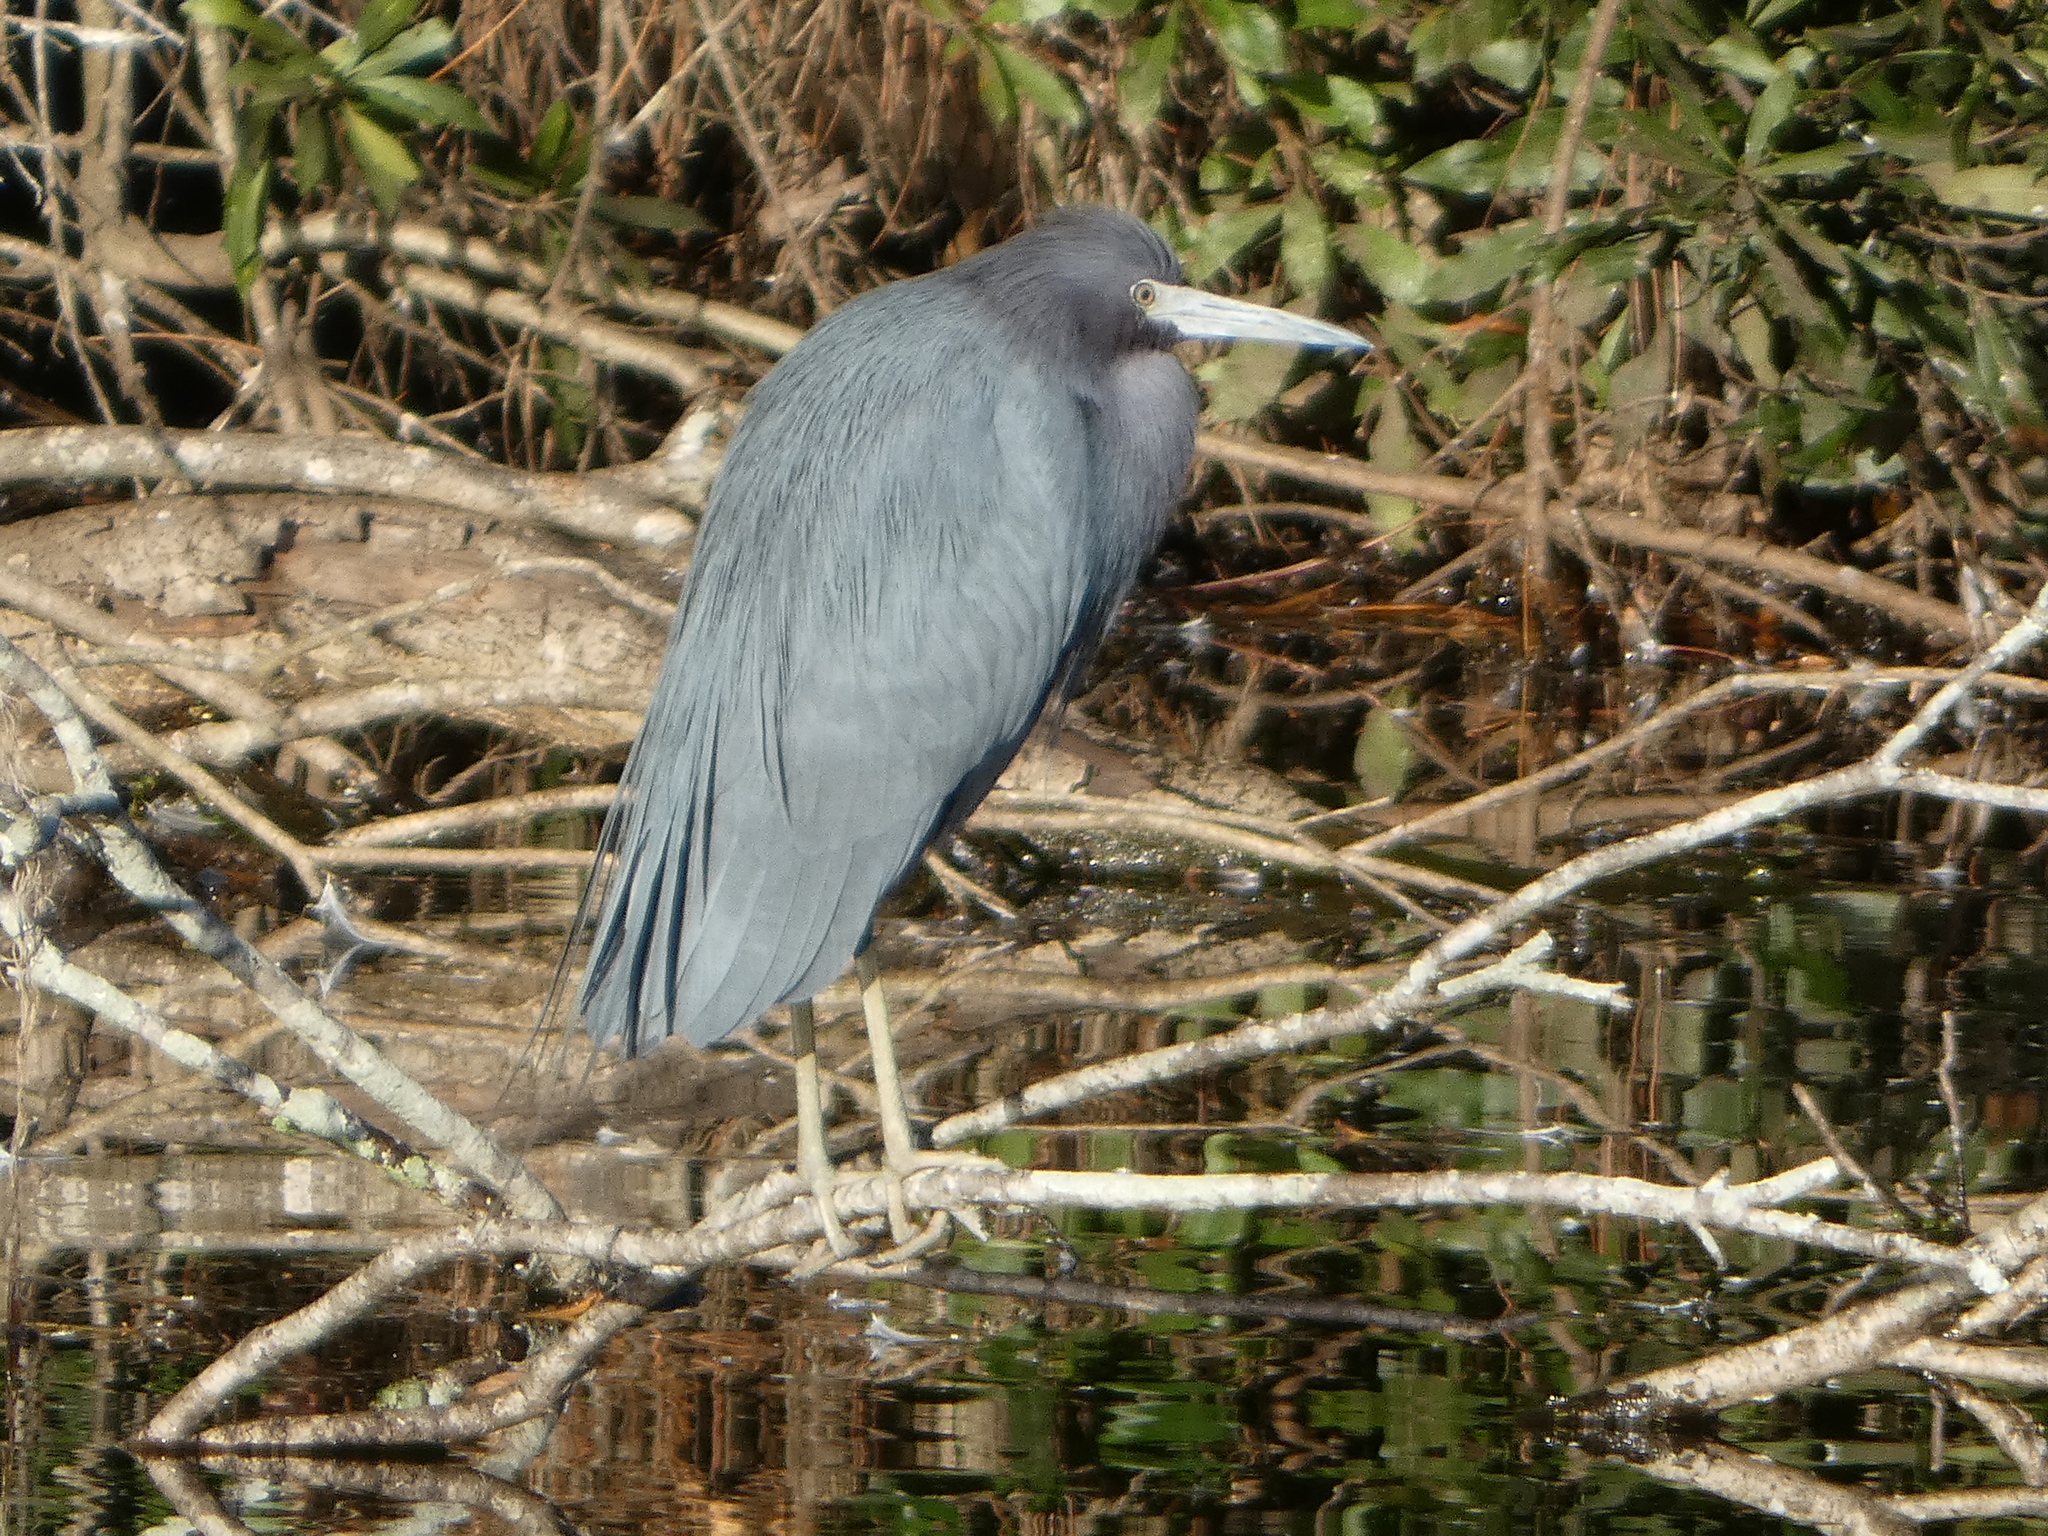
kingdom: Animalia
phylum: Chordata
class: Aves
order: Pelecaniformes
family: Ardeidae
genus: Egretta
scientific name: Egretta caerulea
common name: Little blue heron
